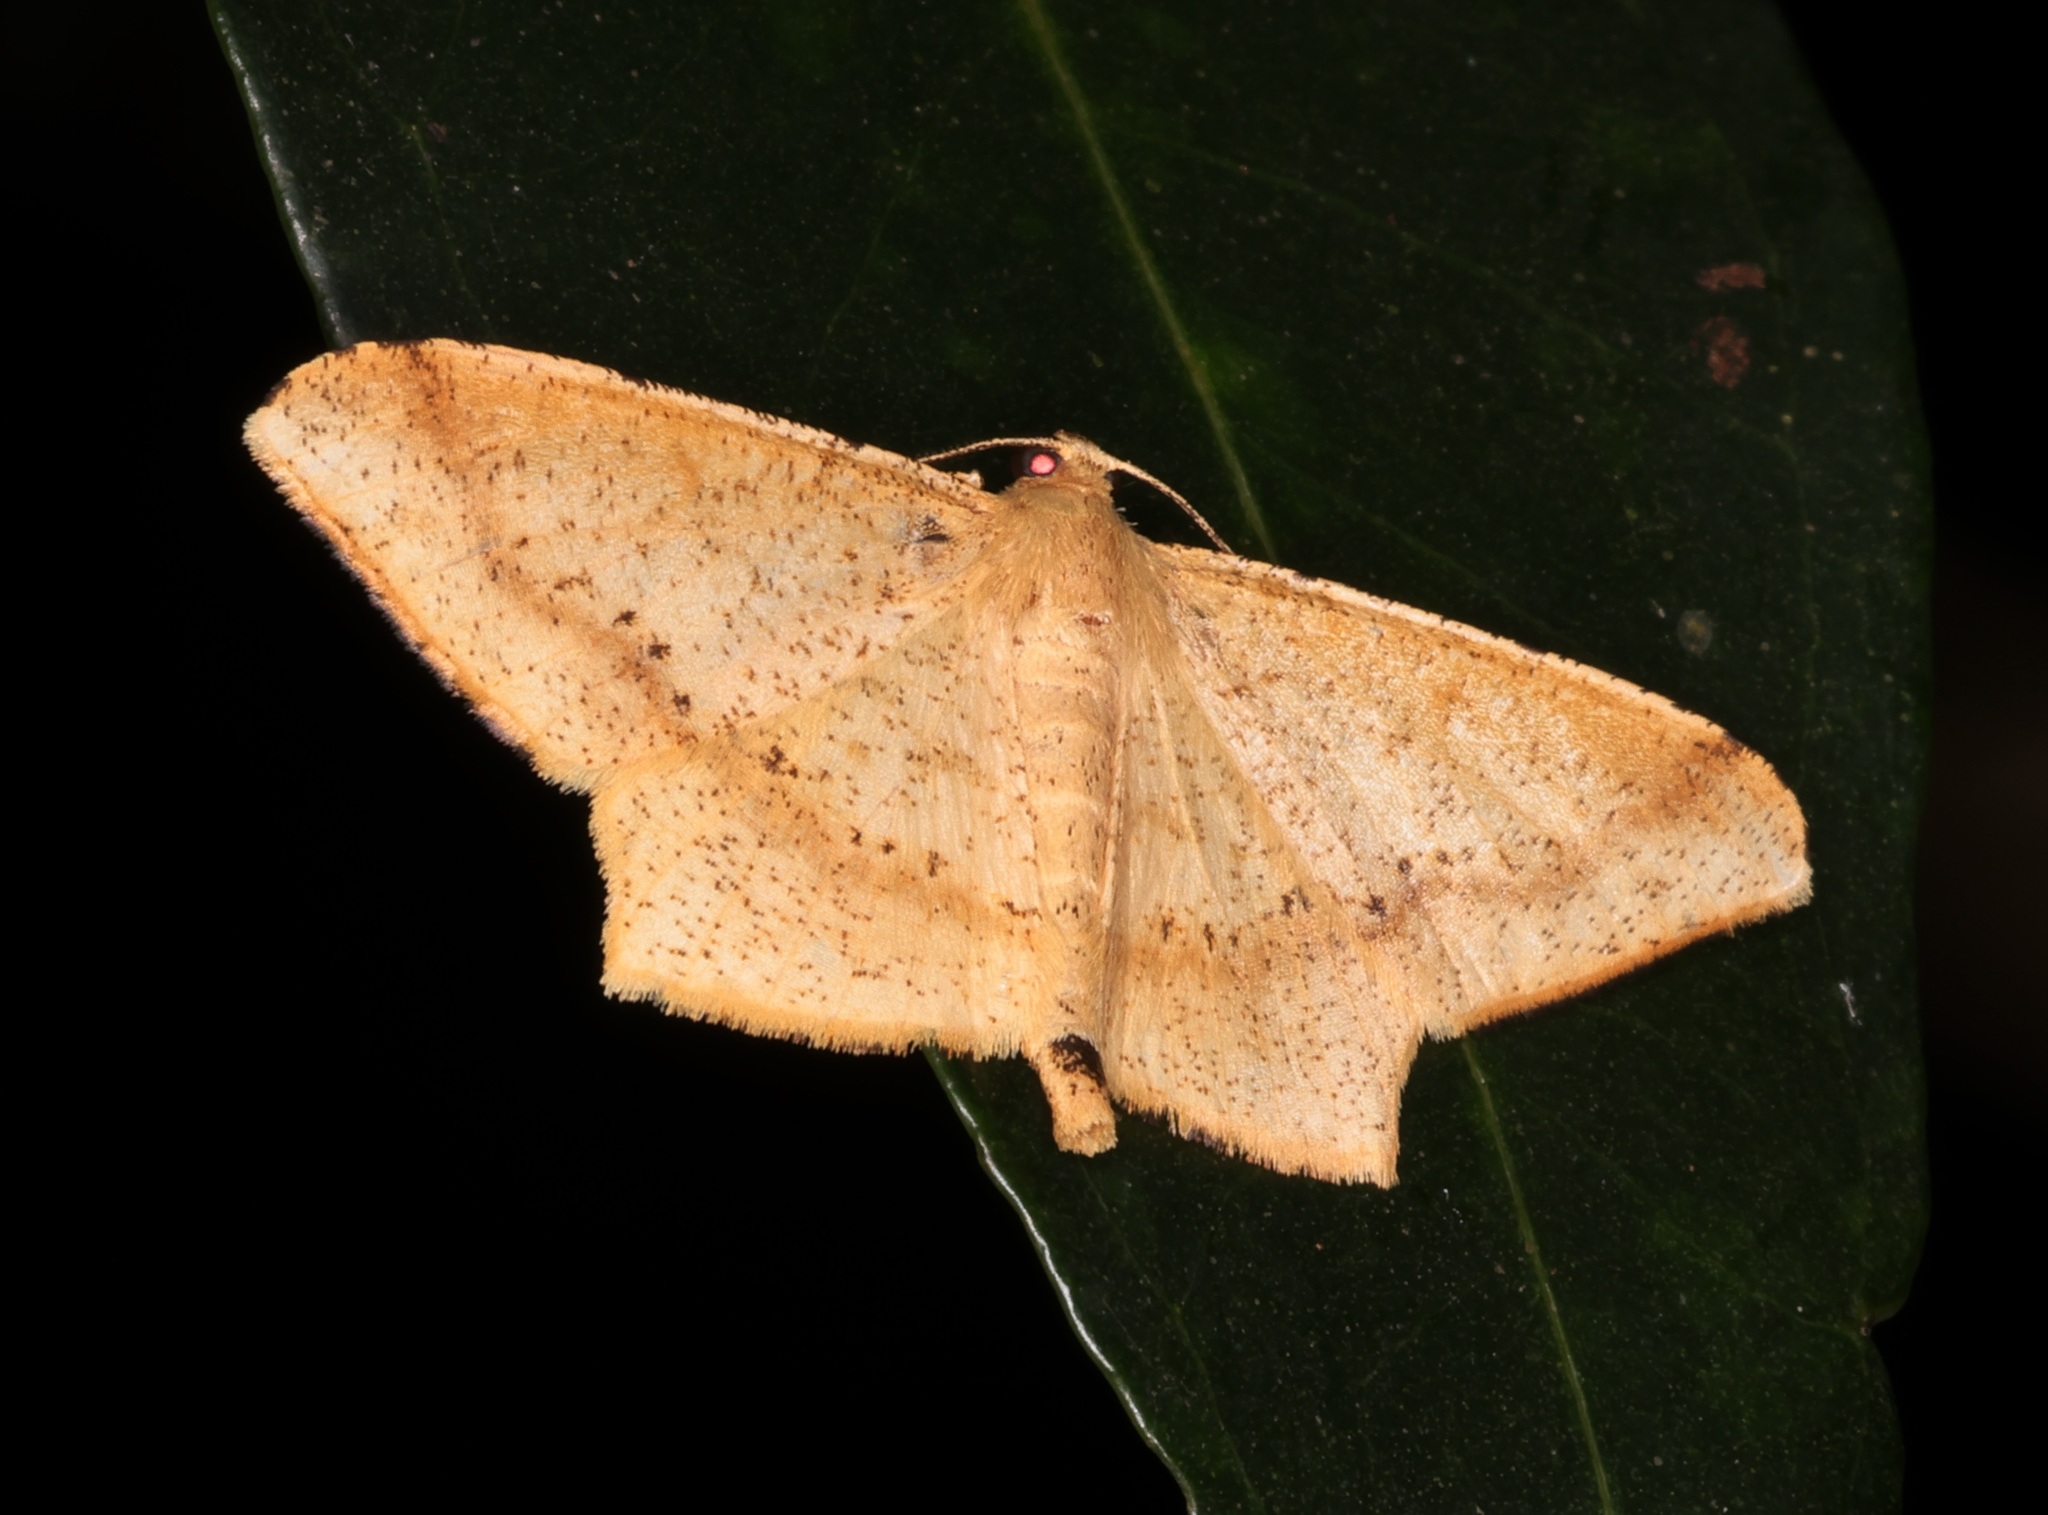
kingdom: Animalia
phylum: Arthropoda
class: Insecta
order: Lepidoptera
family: Geometridae
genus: Krananda
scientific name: Krananda falcata
